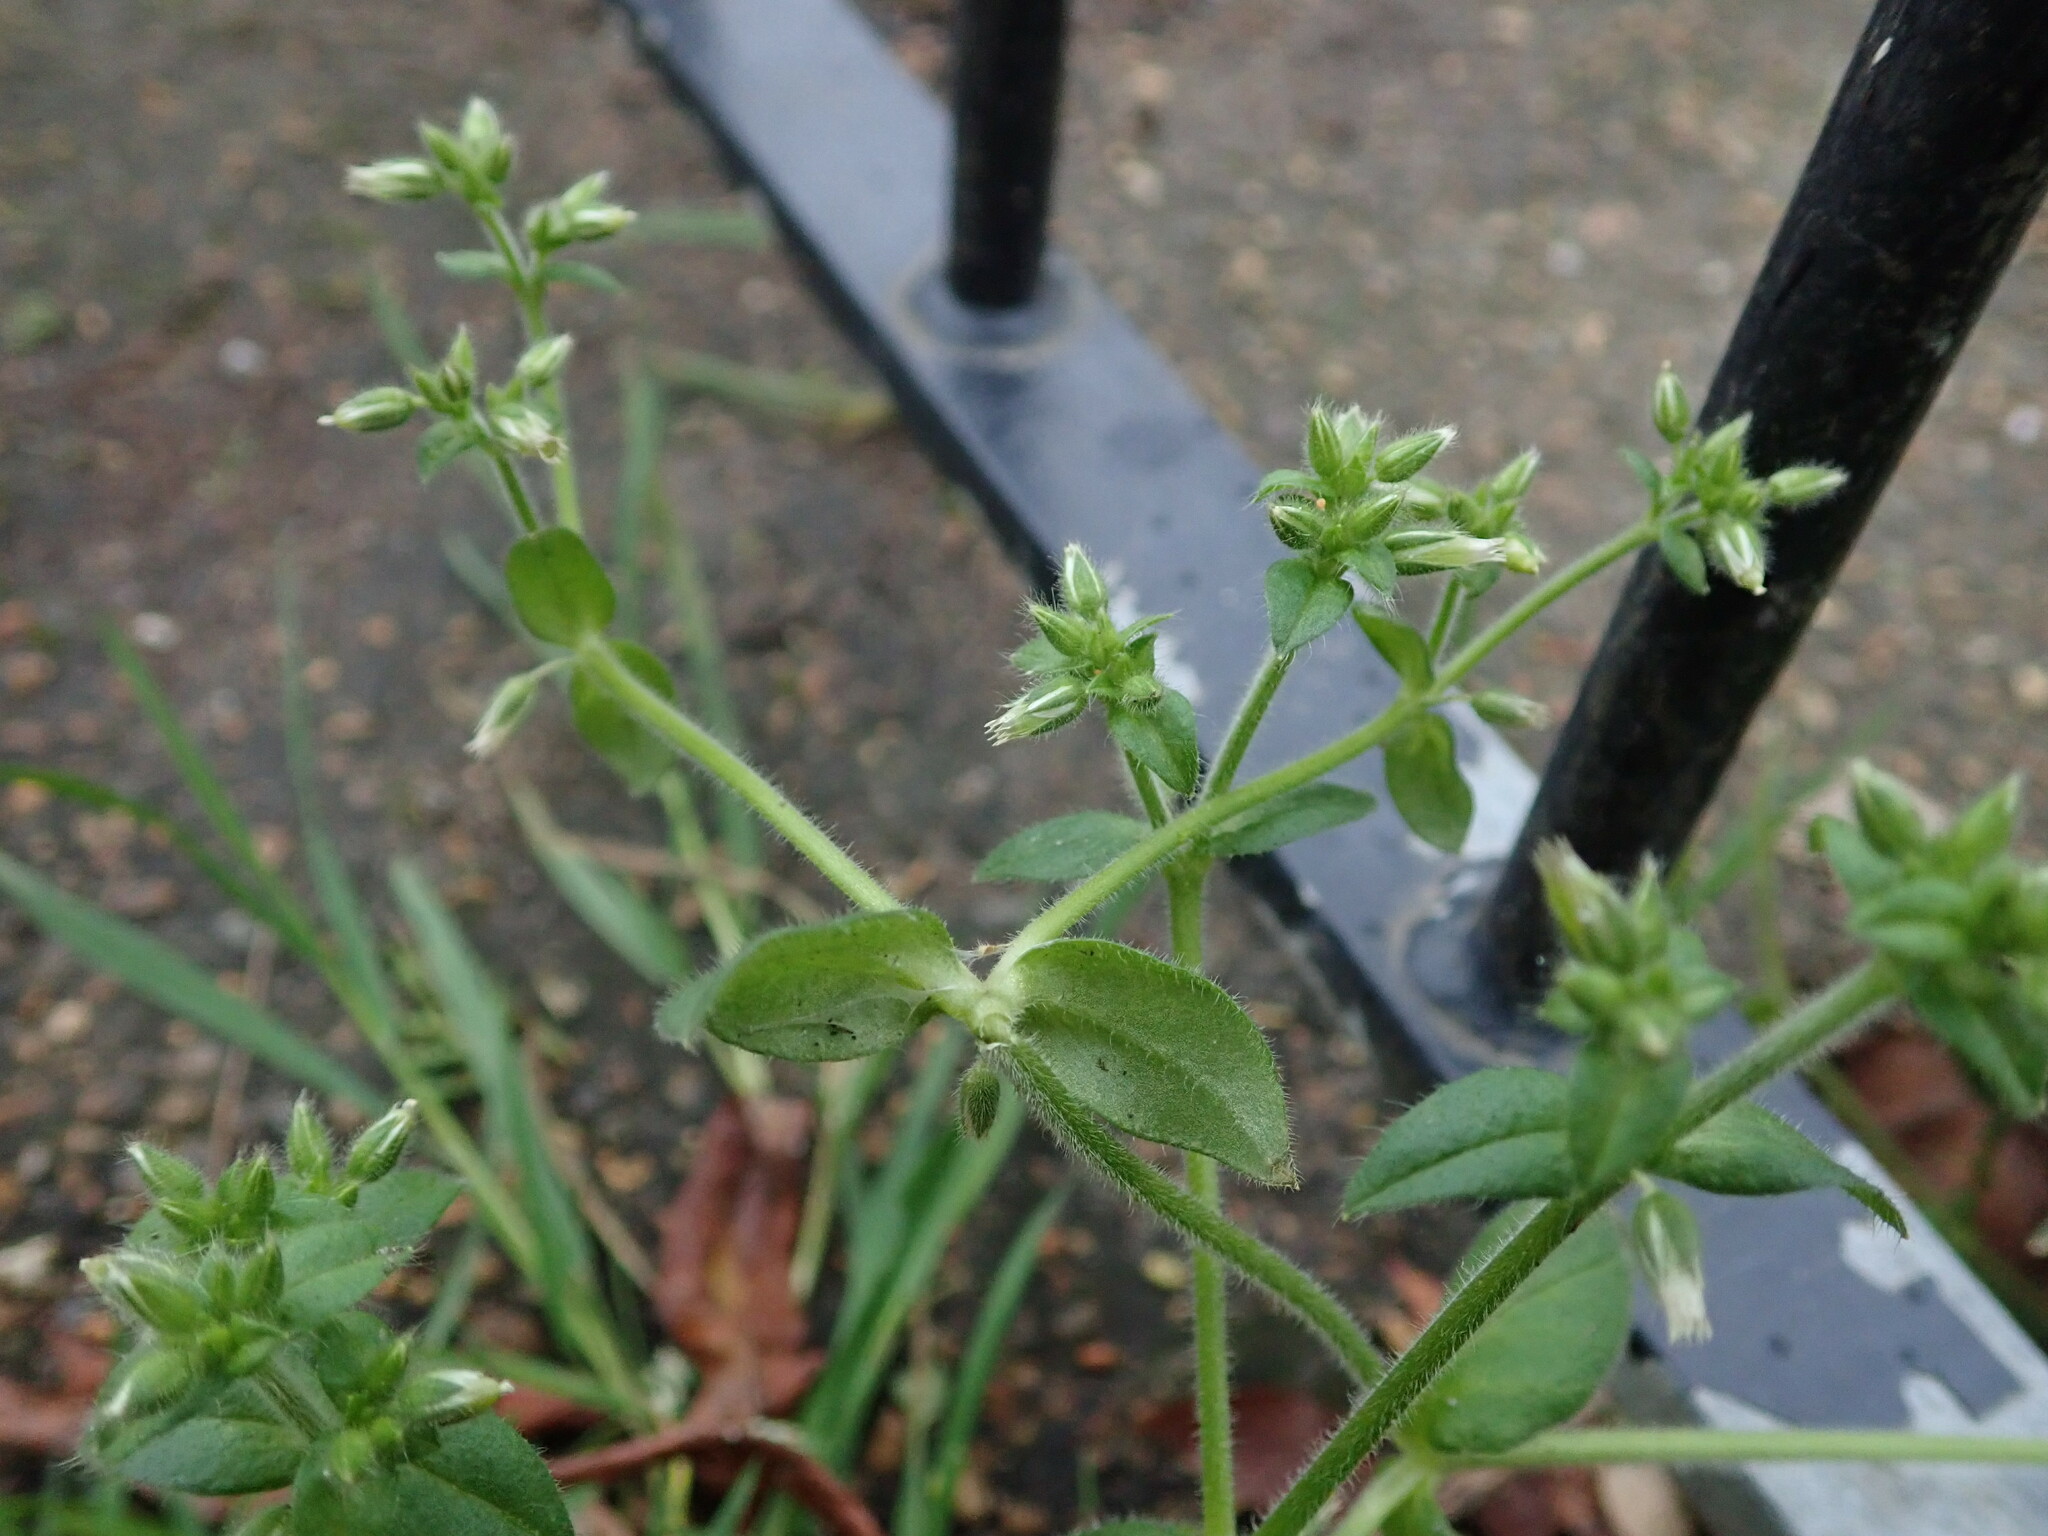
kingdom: Plantae
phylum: Tracheophyta
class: Magnoliopsida
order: Caryophyllales
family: Caryophyllaceae
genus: Cerastium
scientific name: Cerastium glomeratum
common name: Sticky chickweed
